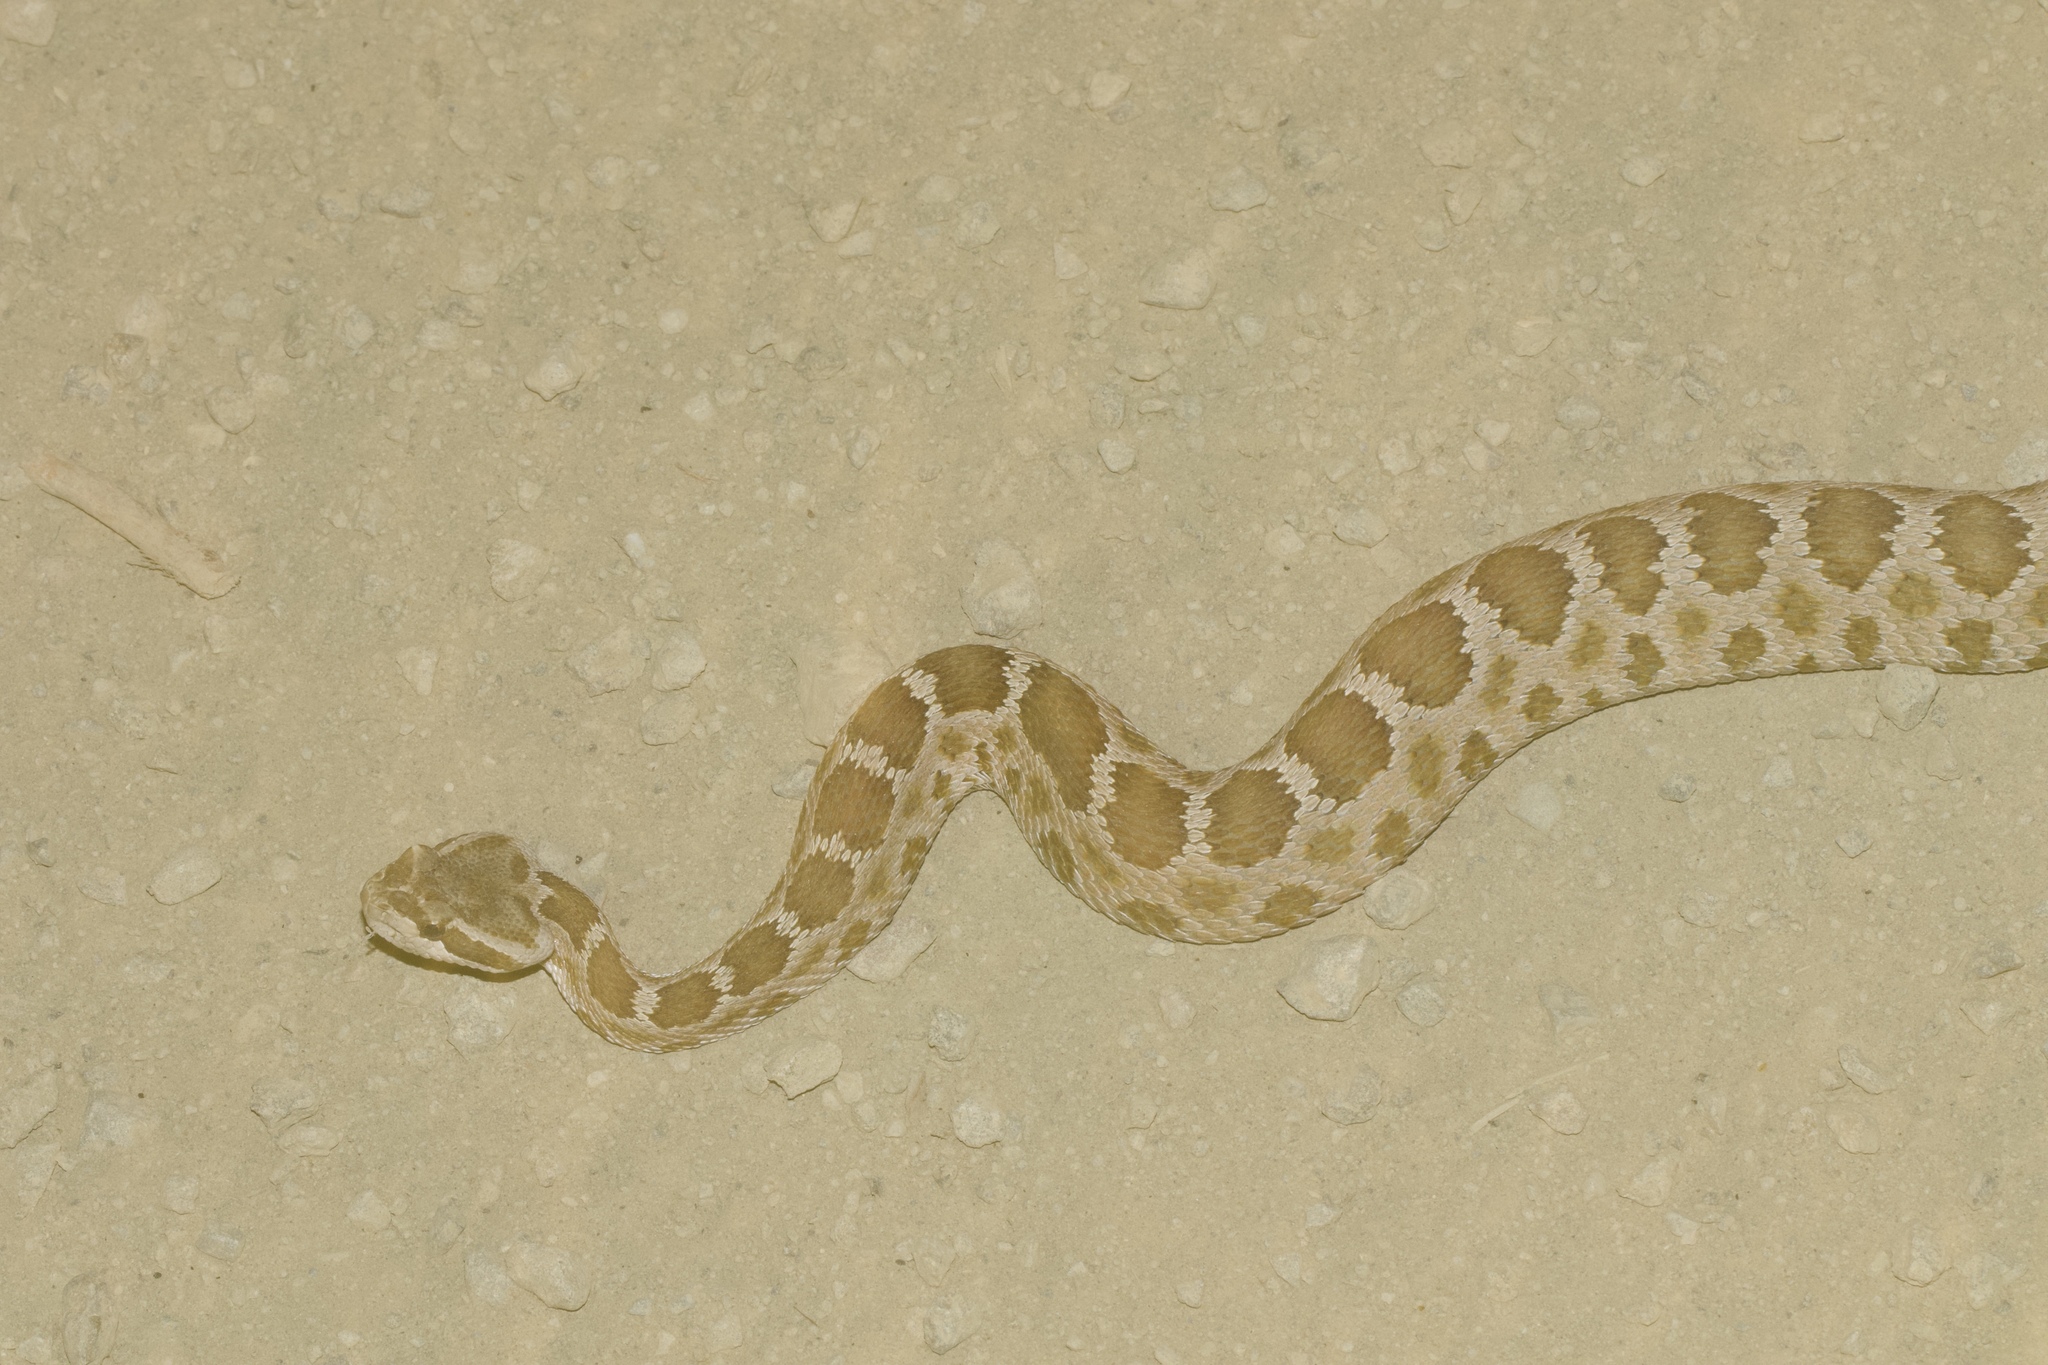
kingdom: Animalia
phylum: Chordata
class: Squamata
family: Viperidae
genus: Crotalus
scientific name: Crotalus oreganus
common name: Abyssus
